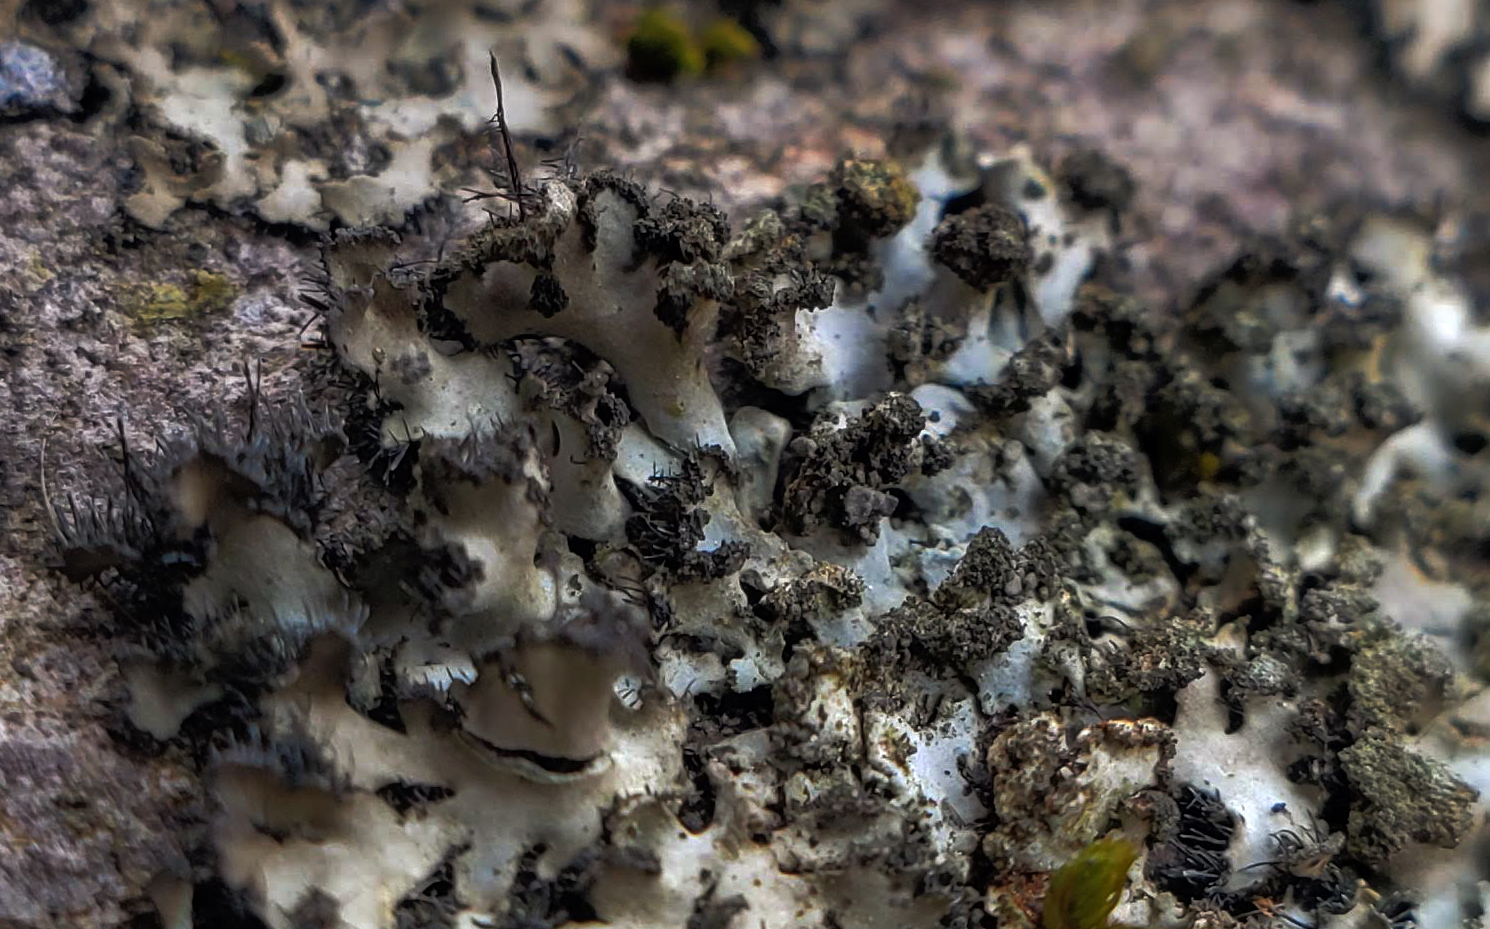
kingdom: Fungi
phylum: Ascomycota
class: Lecanoromycetes
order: Caliciales
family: Physciaceae
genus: Phaeophyscia
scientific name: Phaeophyscia hispidula
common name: Whiskered shadow lichen
